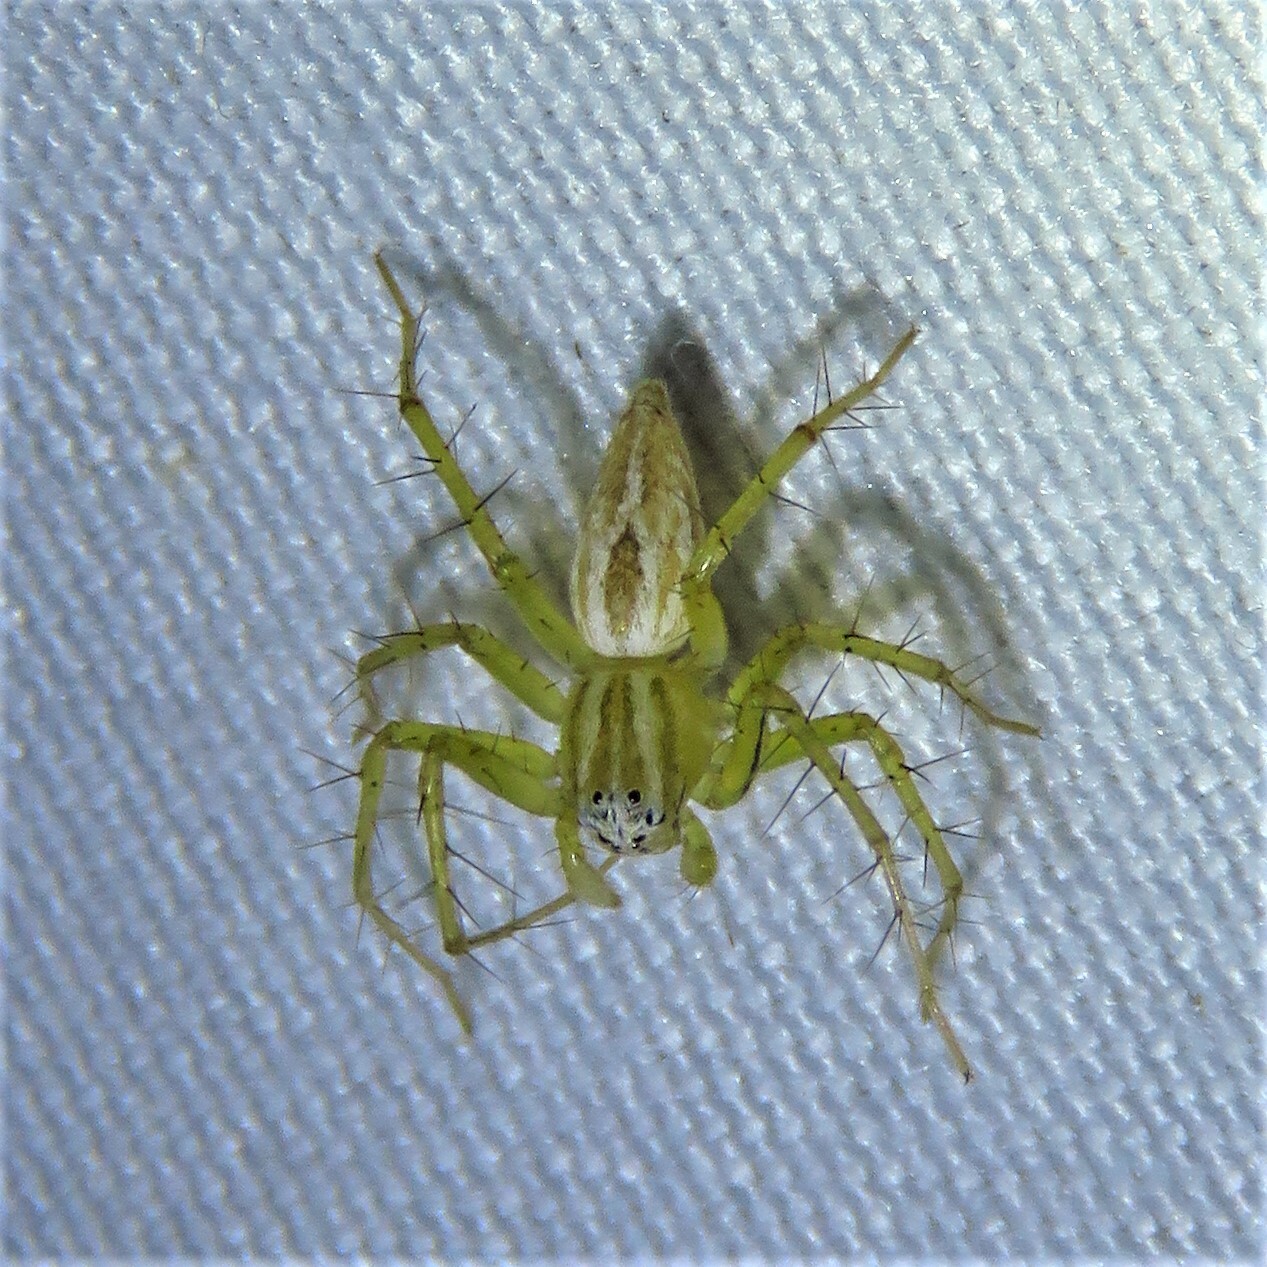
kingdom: Animalia
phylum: Arthropoda
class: Arachnida
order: Araneae
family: Oxyopidae
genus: Oxyopes
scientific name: Oxyopes salticus
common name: Lynx spiders
